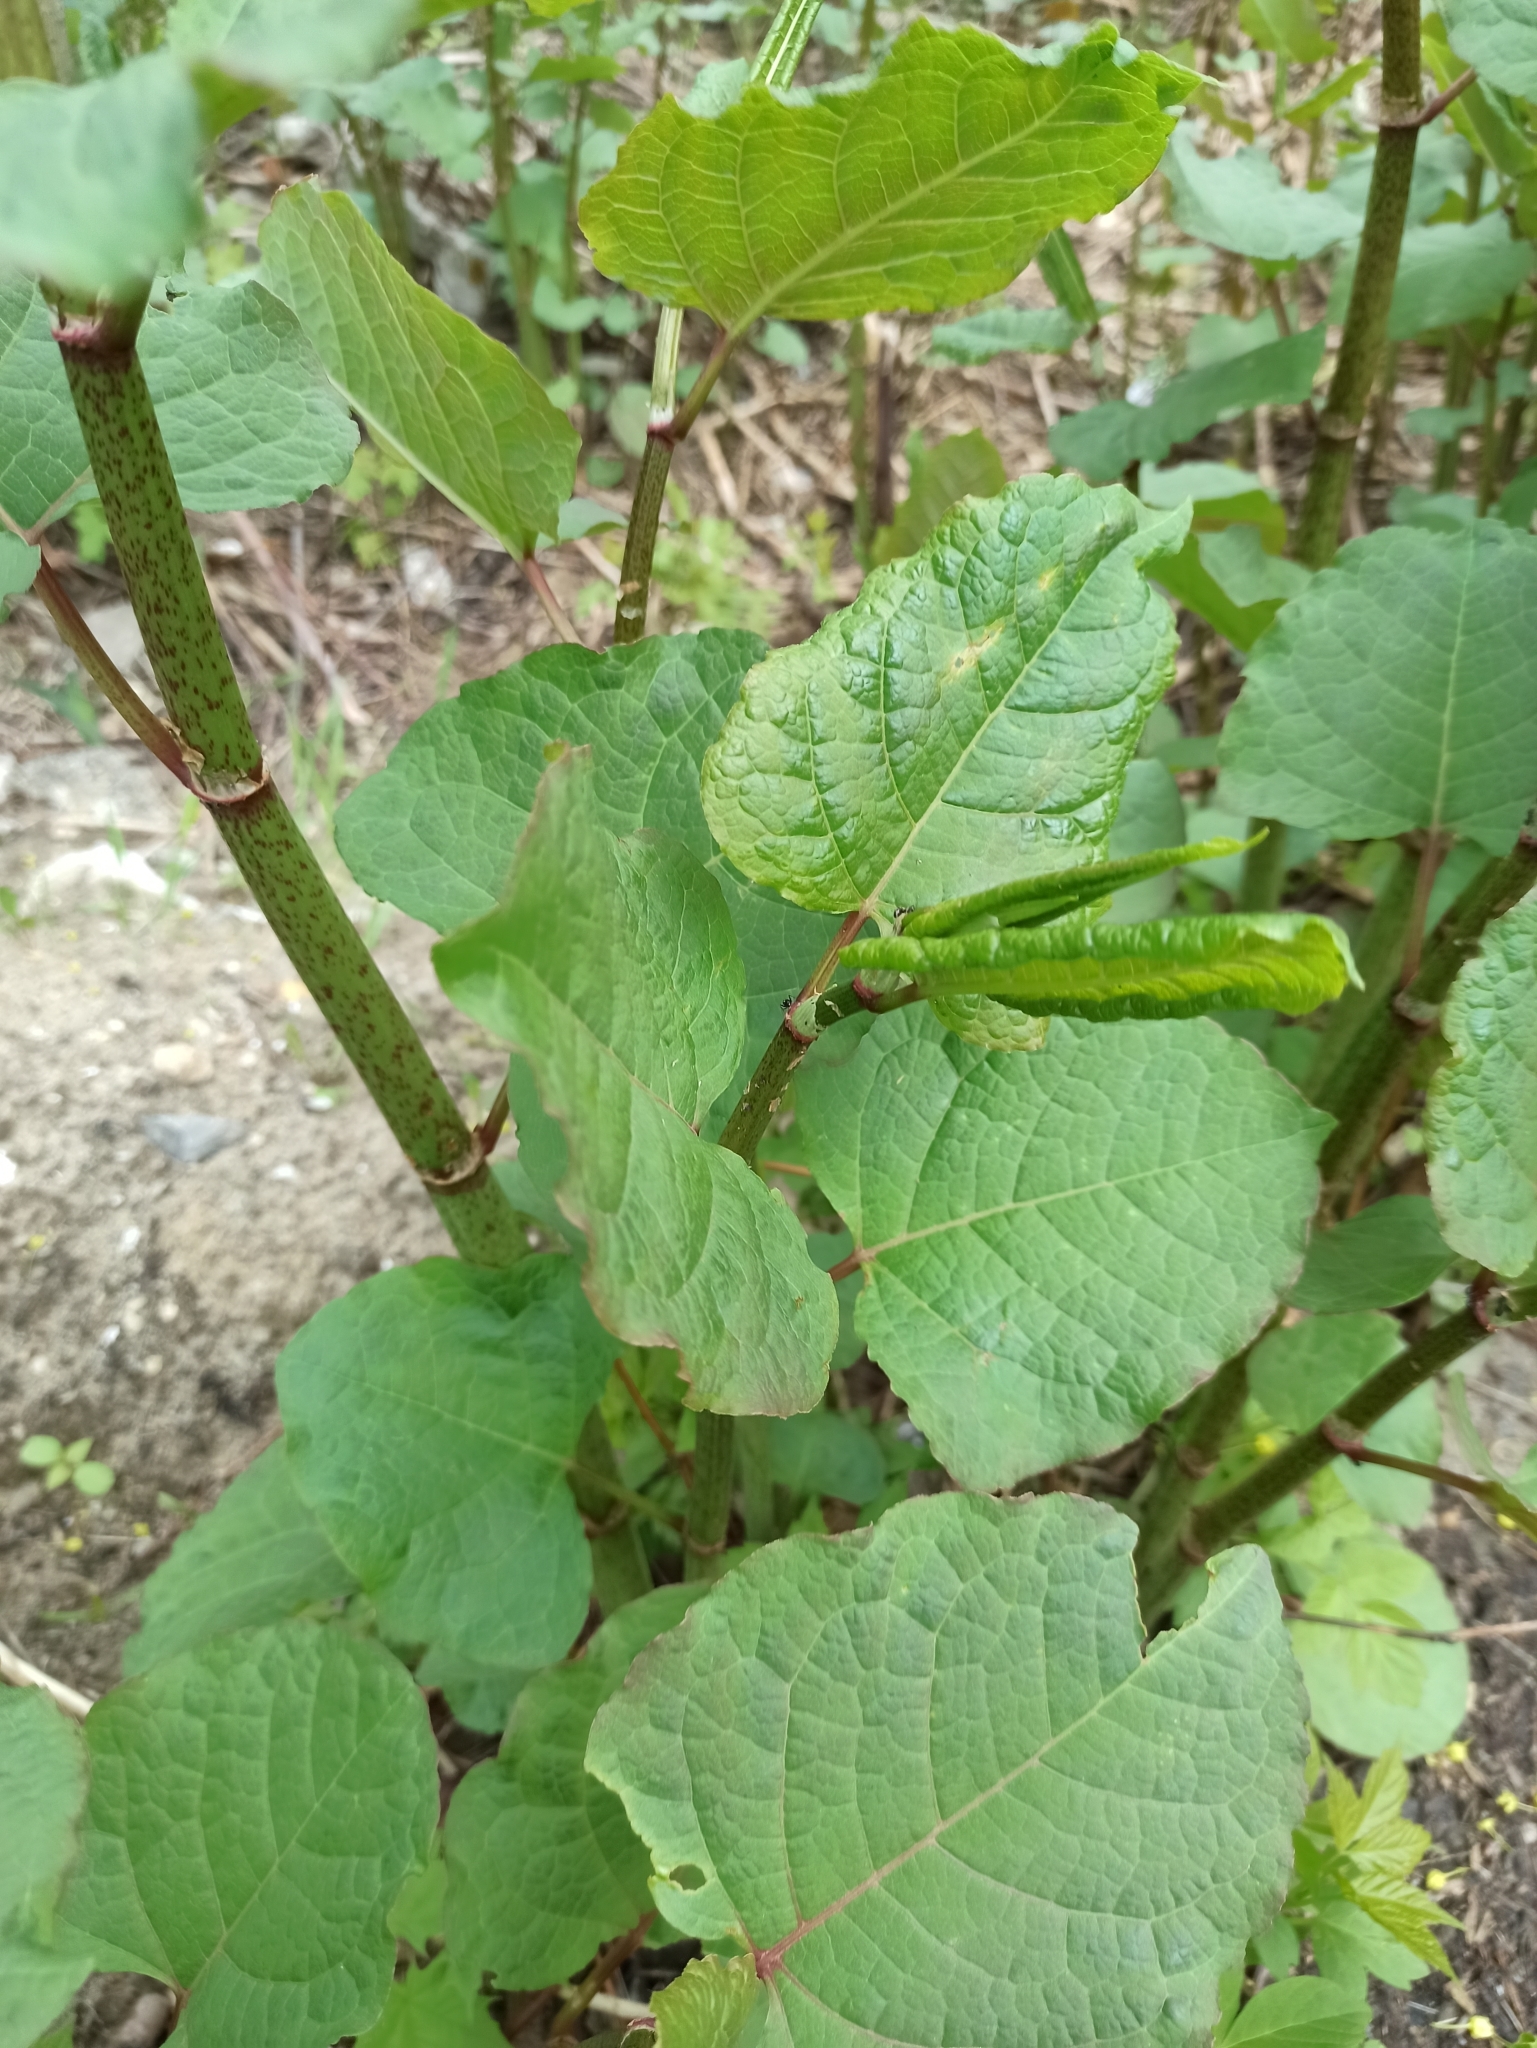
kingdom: Plantae
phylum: Tracheophyta
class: Magnoliopsida
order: Caryophyllales
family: Polygonaceae
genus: Reynoutria
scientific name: Reynoutria bohemica
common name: Bohemian knotweed
